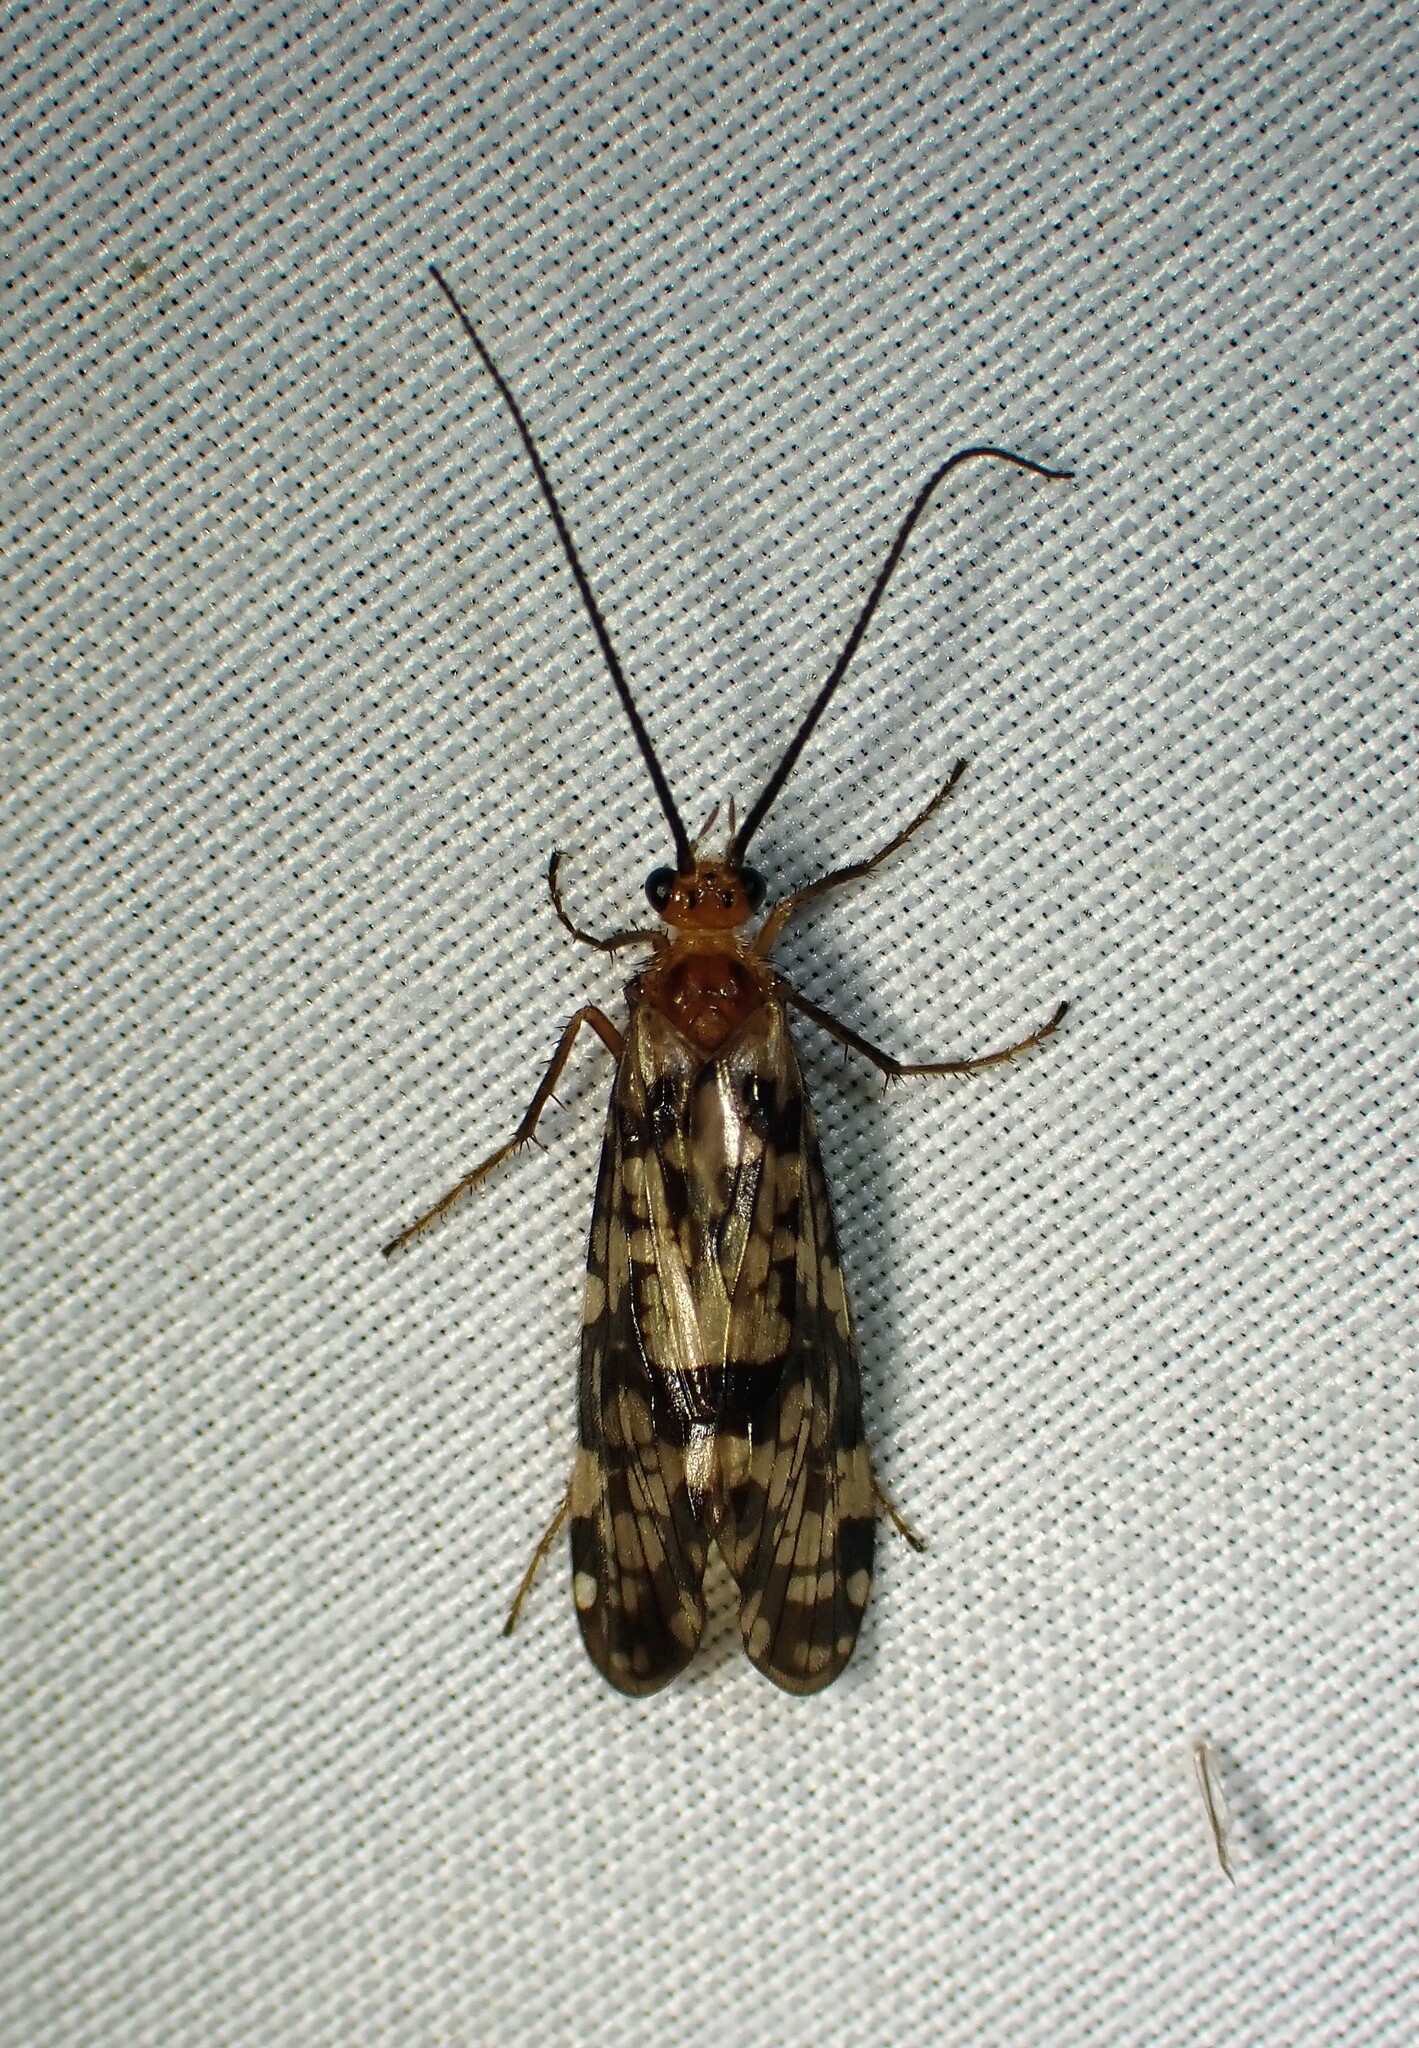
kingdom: Animalia
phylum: Arthropoda
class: Insecta
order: Trichoptera
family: Phryganeidae
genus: Banksiola
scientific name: Banksiola dossuaria
